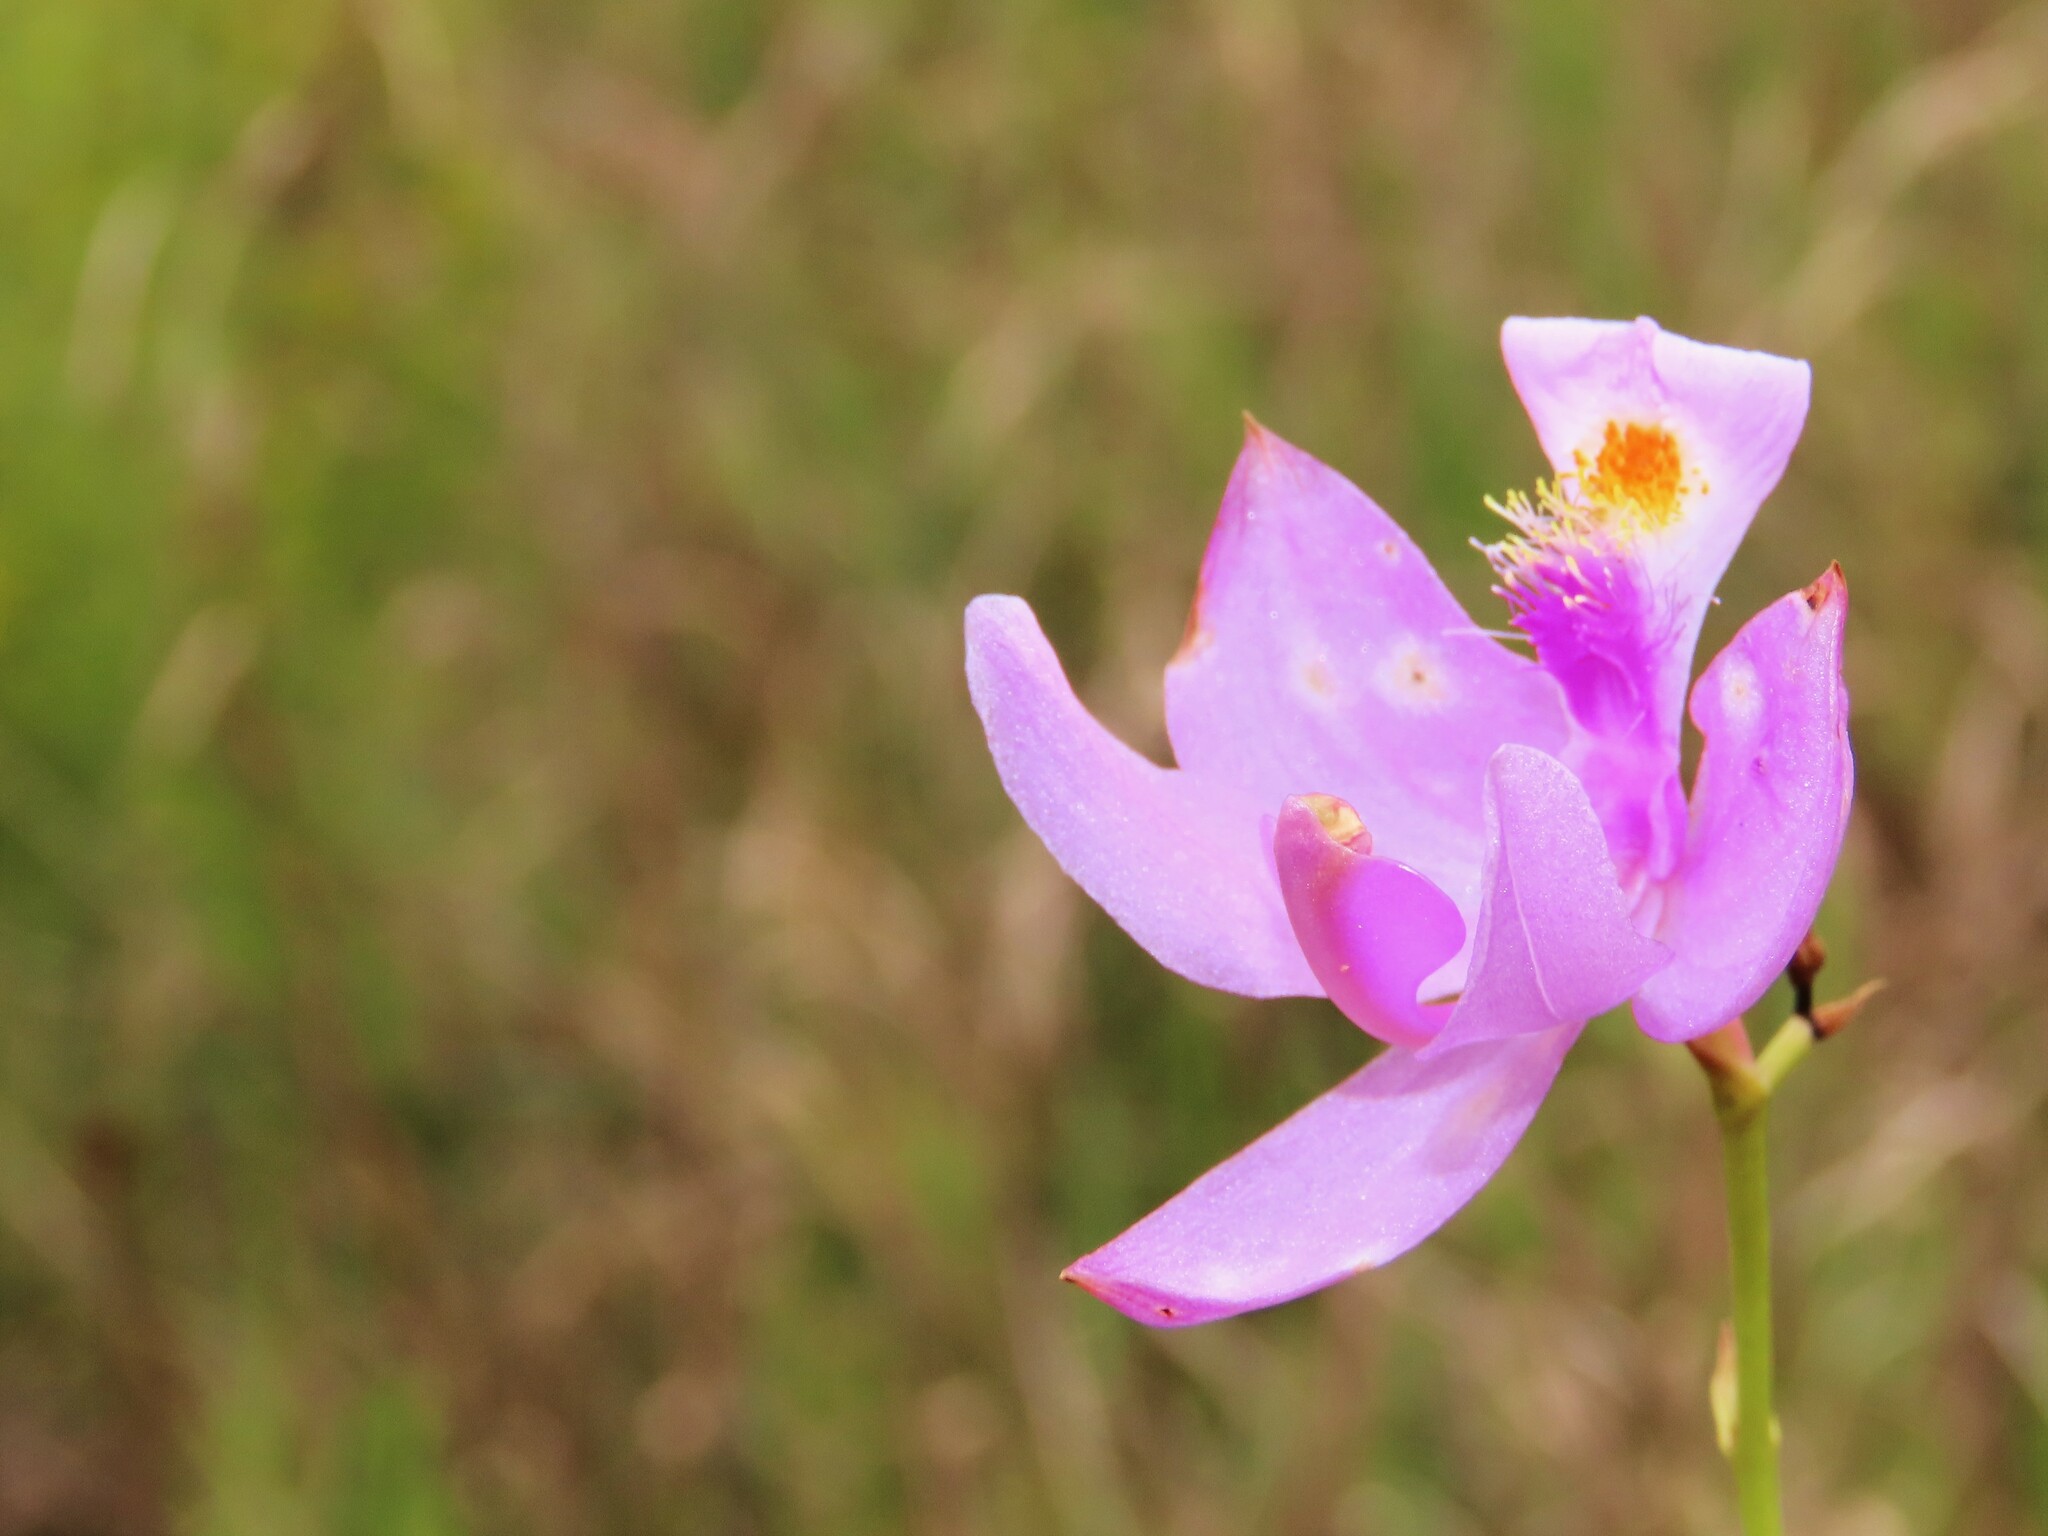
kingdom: Plantae
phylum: Tracheophyta
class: Liliopsida
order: Asparagales
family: Orchidaceae
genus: Calopogon
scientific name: Calopogon tuberosus
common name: Grass-pink
